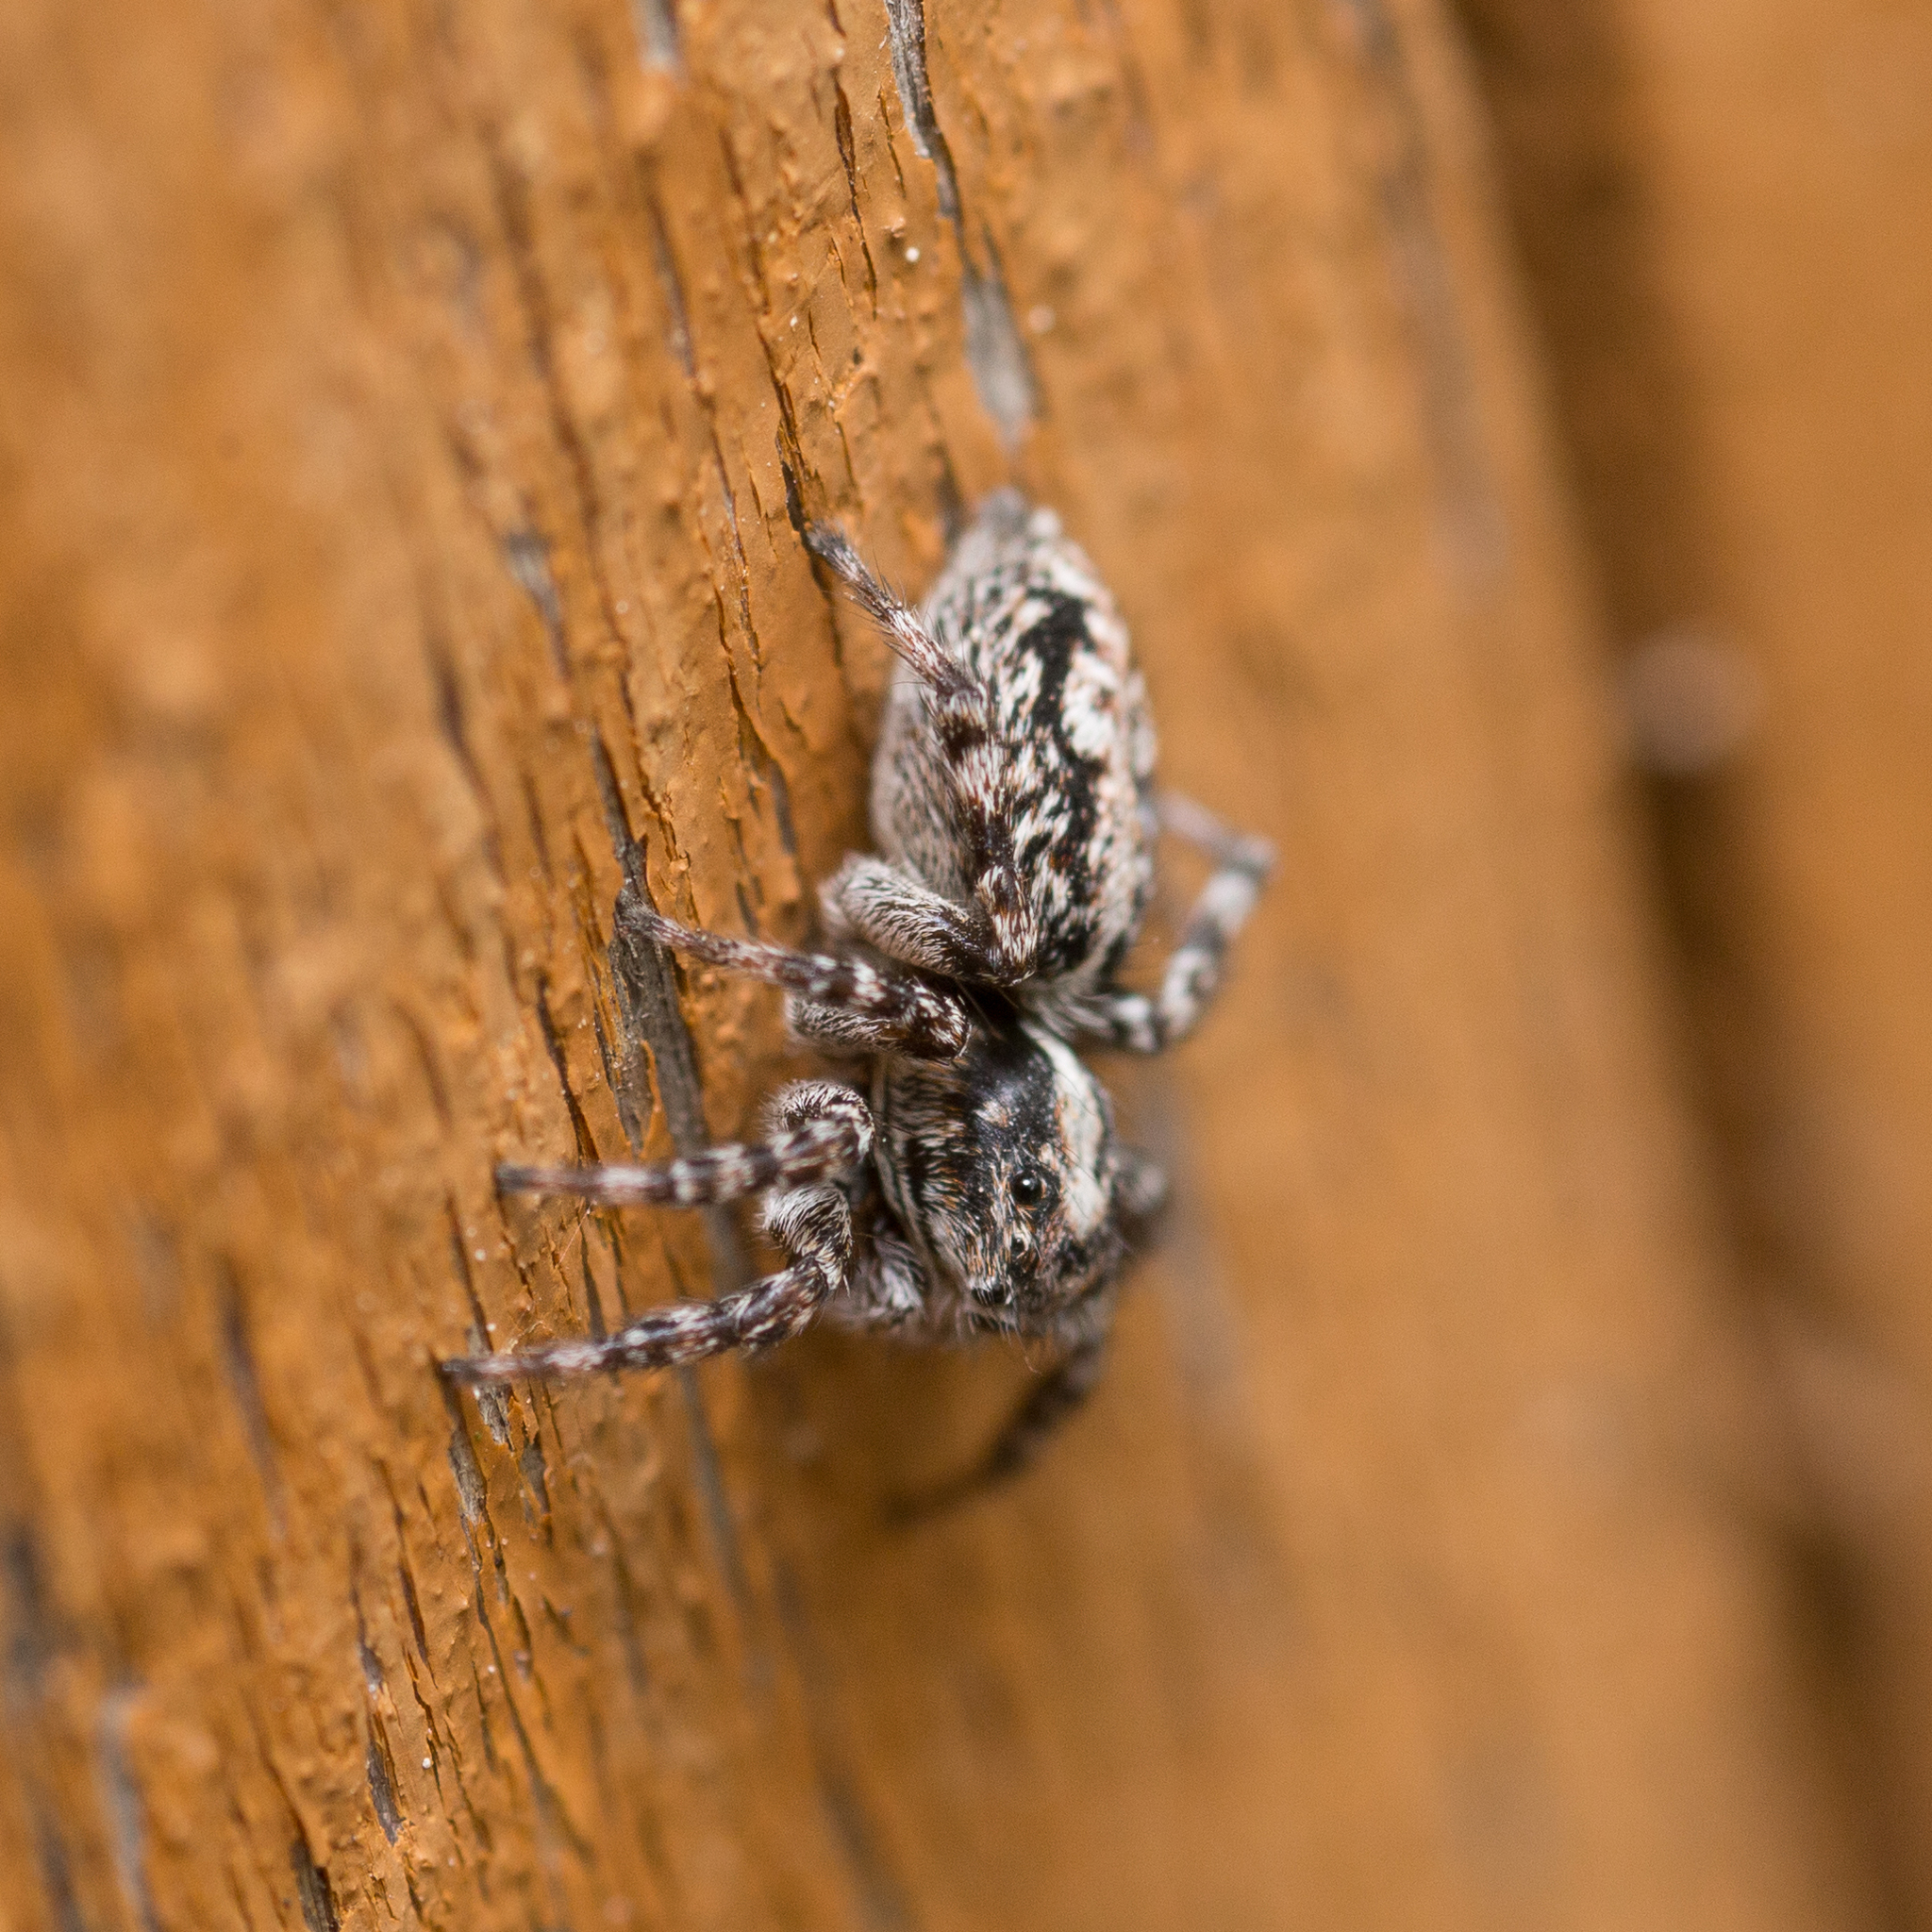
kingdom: Animalia
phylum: Arthropoda
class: Arachnida
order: Araneae
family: Salticidae
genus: Attulus
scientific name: Attulus terebratus
